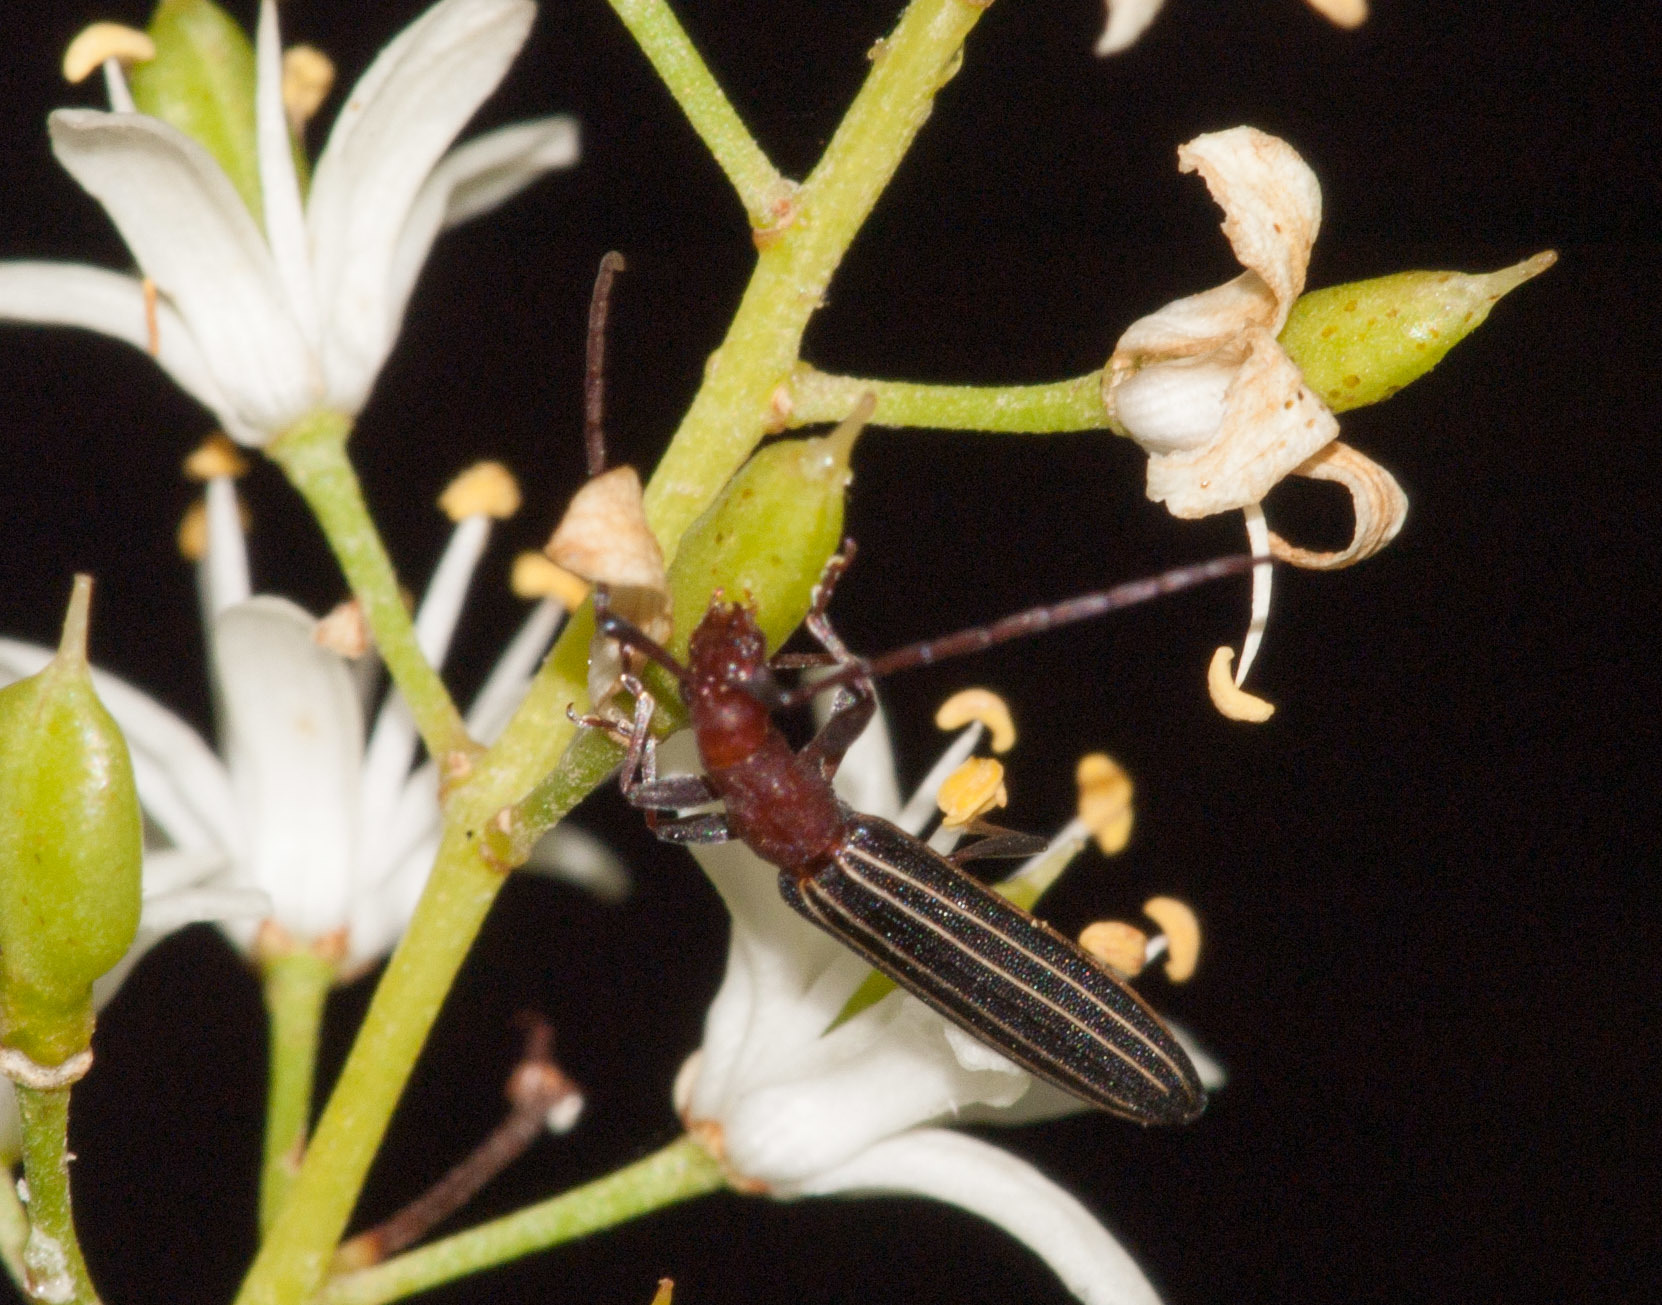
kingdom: Animalia
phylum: Arthropoda
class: Insecta
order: Coleoptera
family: Cerambycidae
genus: Syllitus
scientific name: Syllitus
